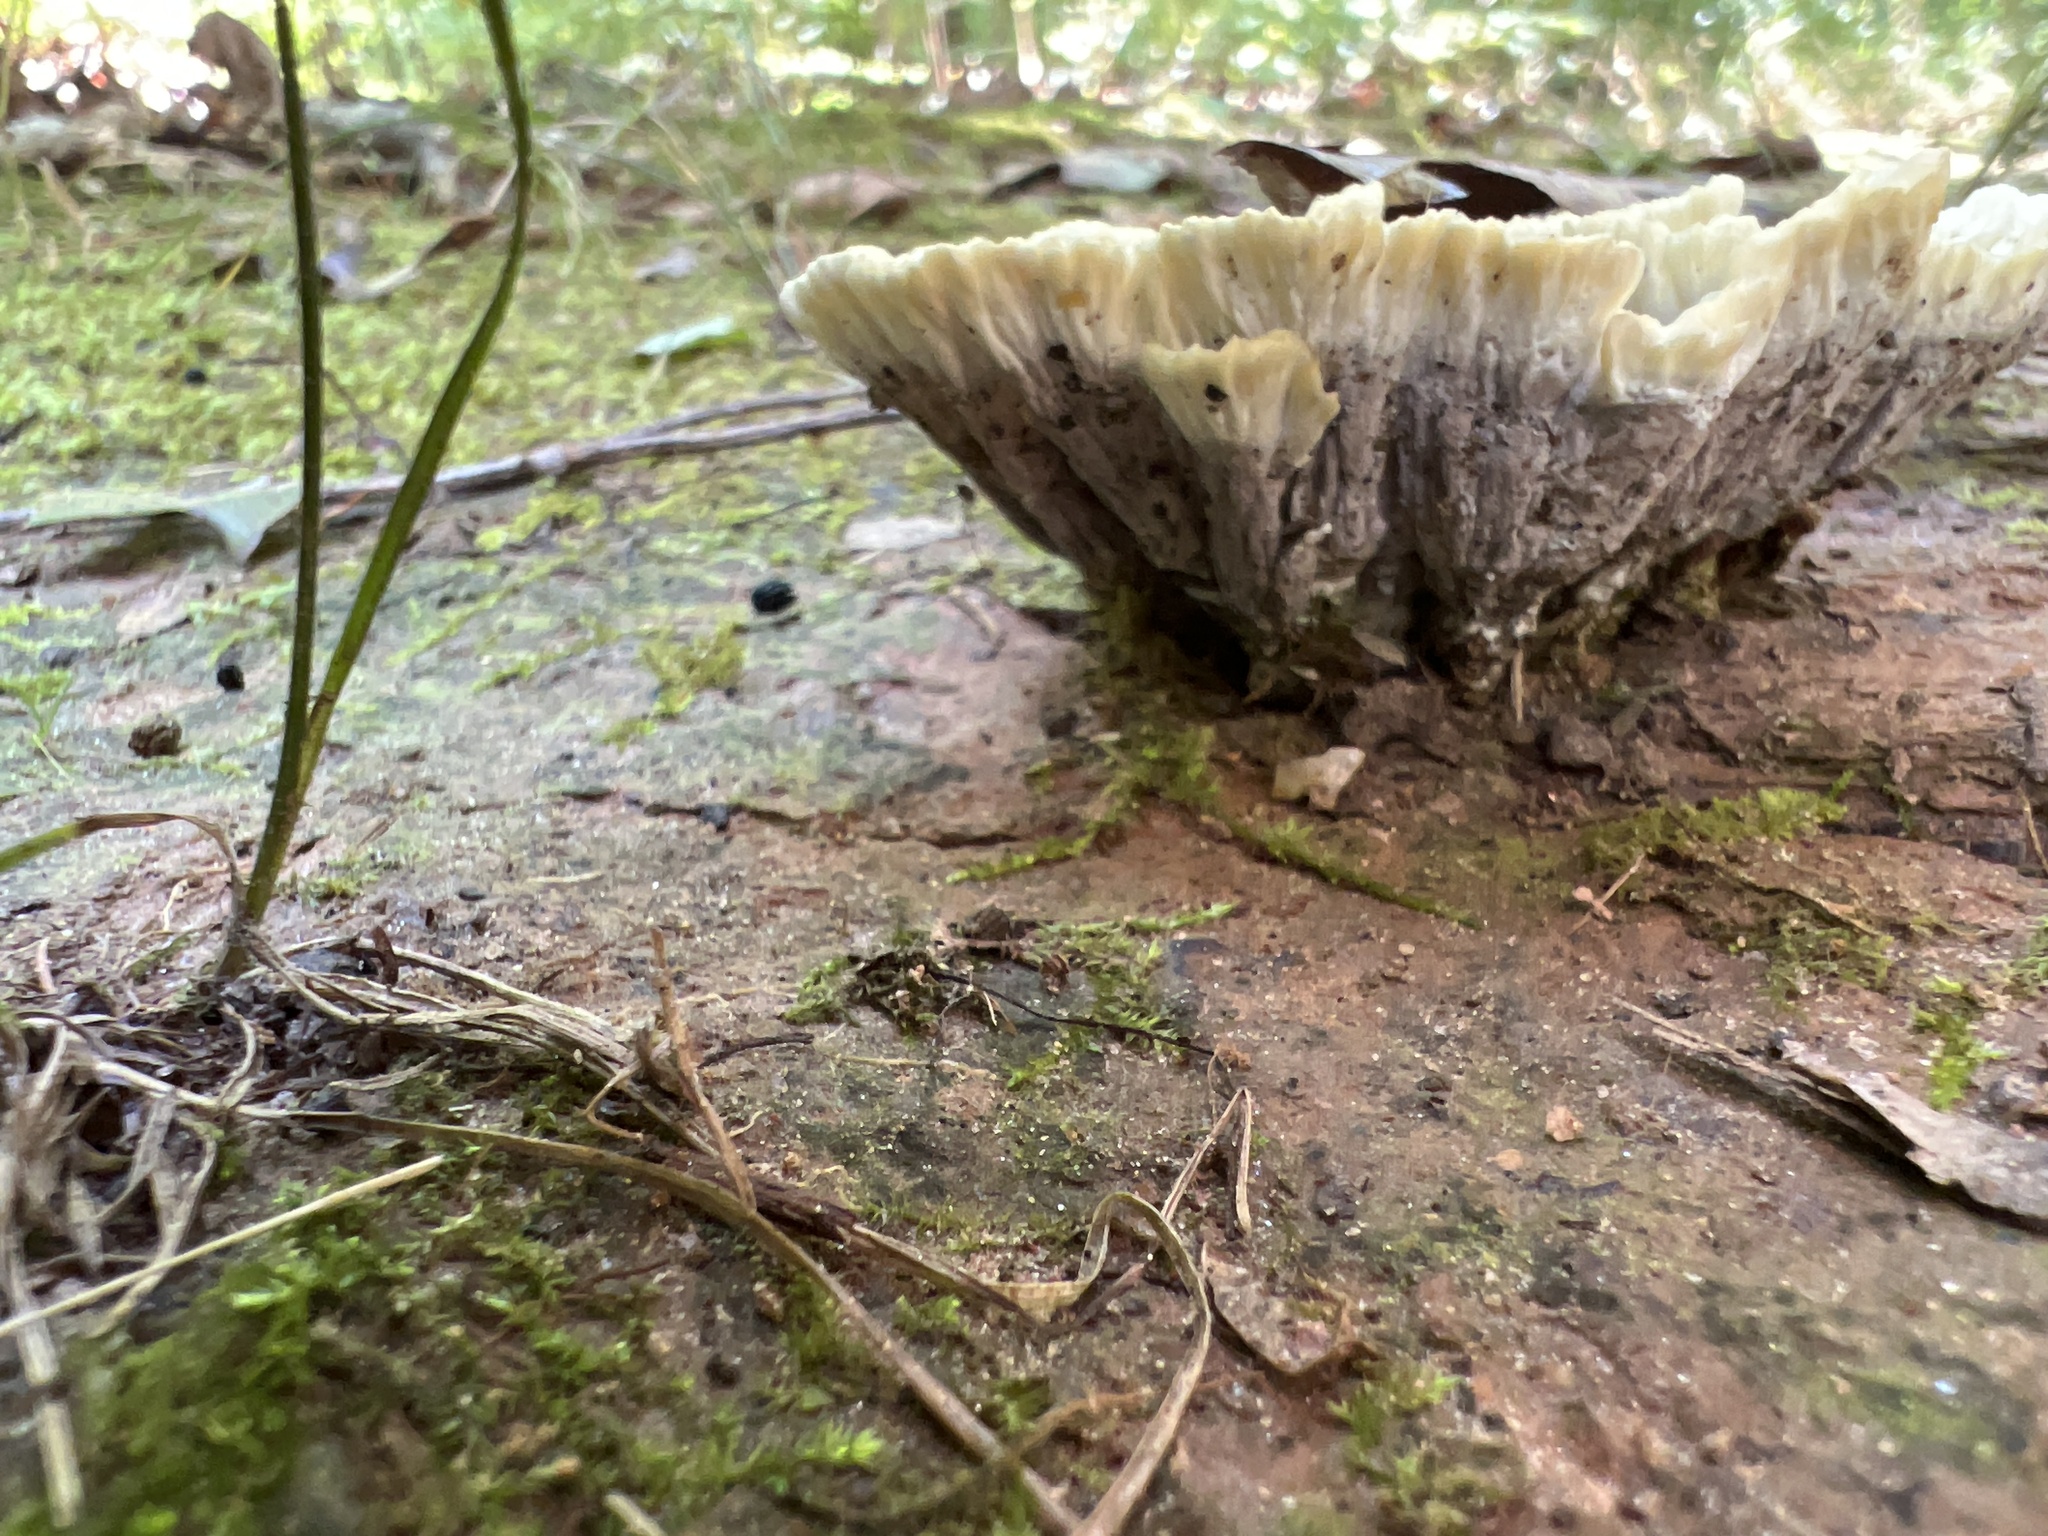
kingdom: Fungi
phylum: Basidiomycota
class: Agaricomycetes
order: Thelephorales
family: Thelephoraceae
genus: Thelephora
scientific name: Thelephora vialis
